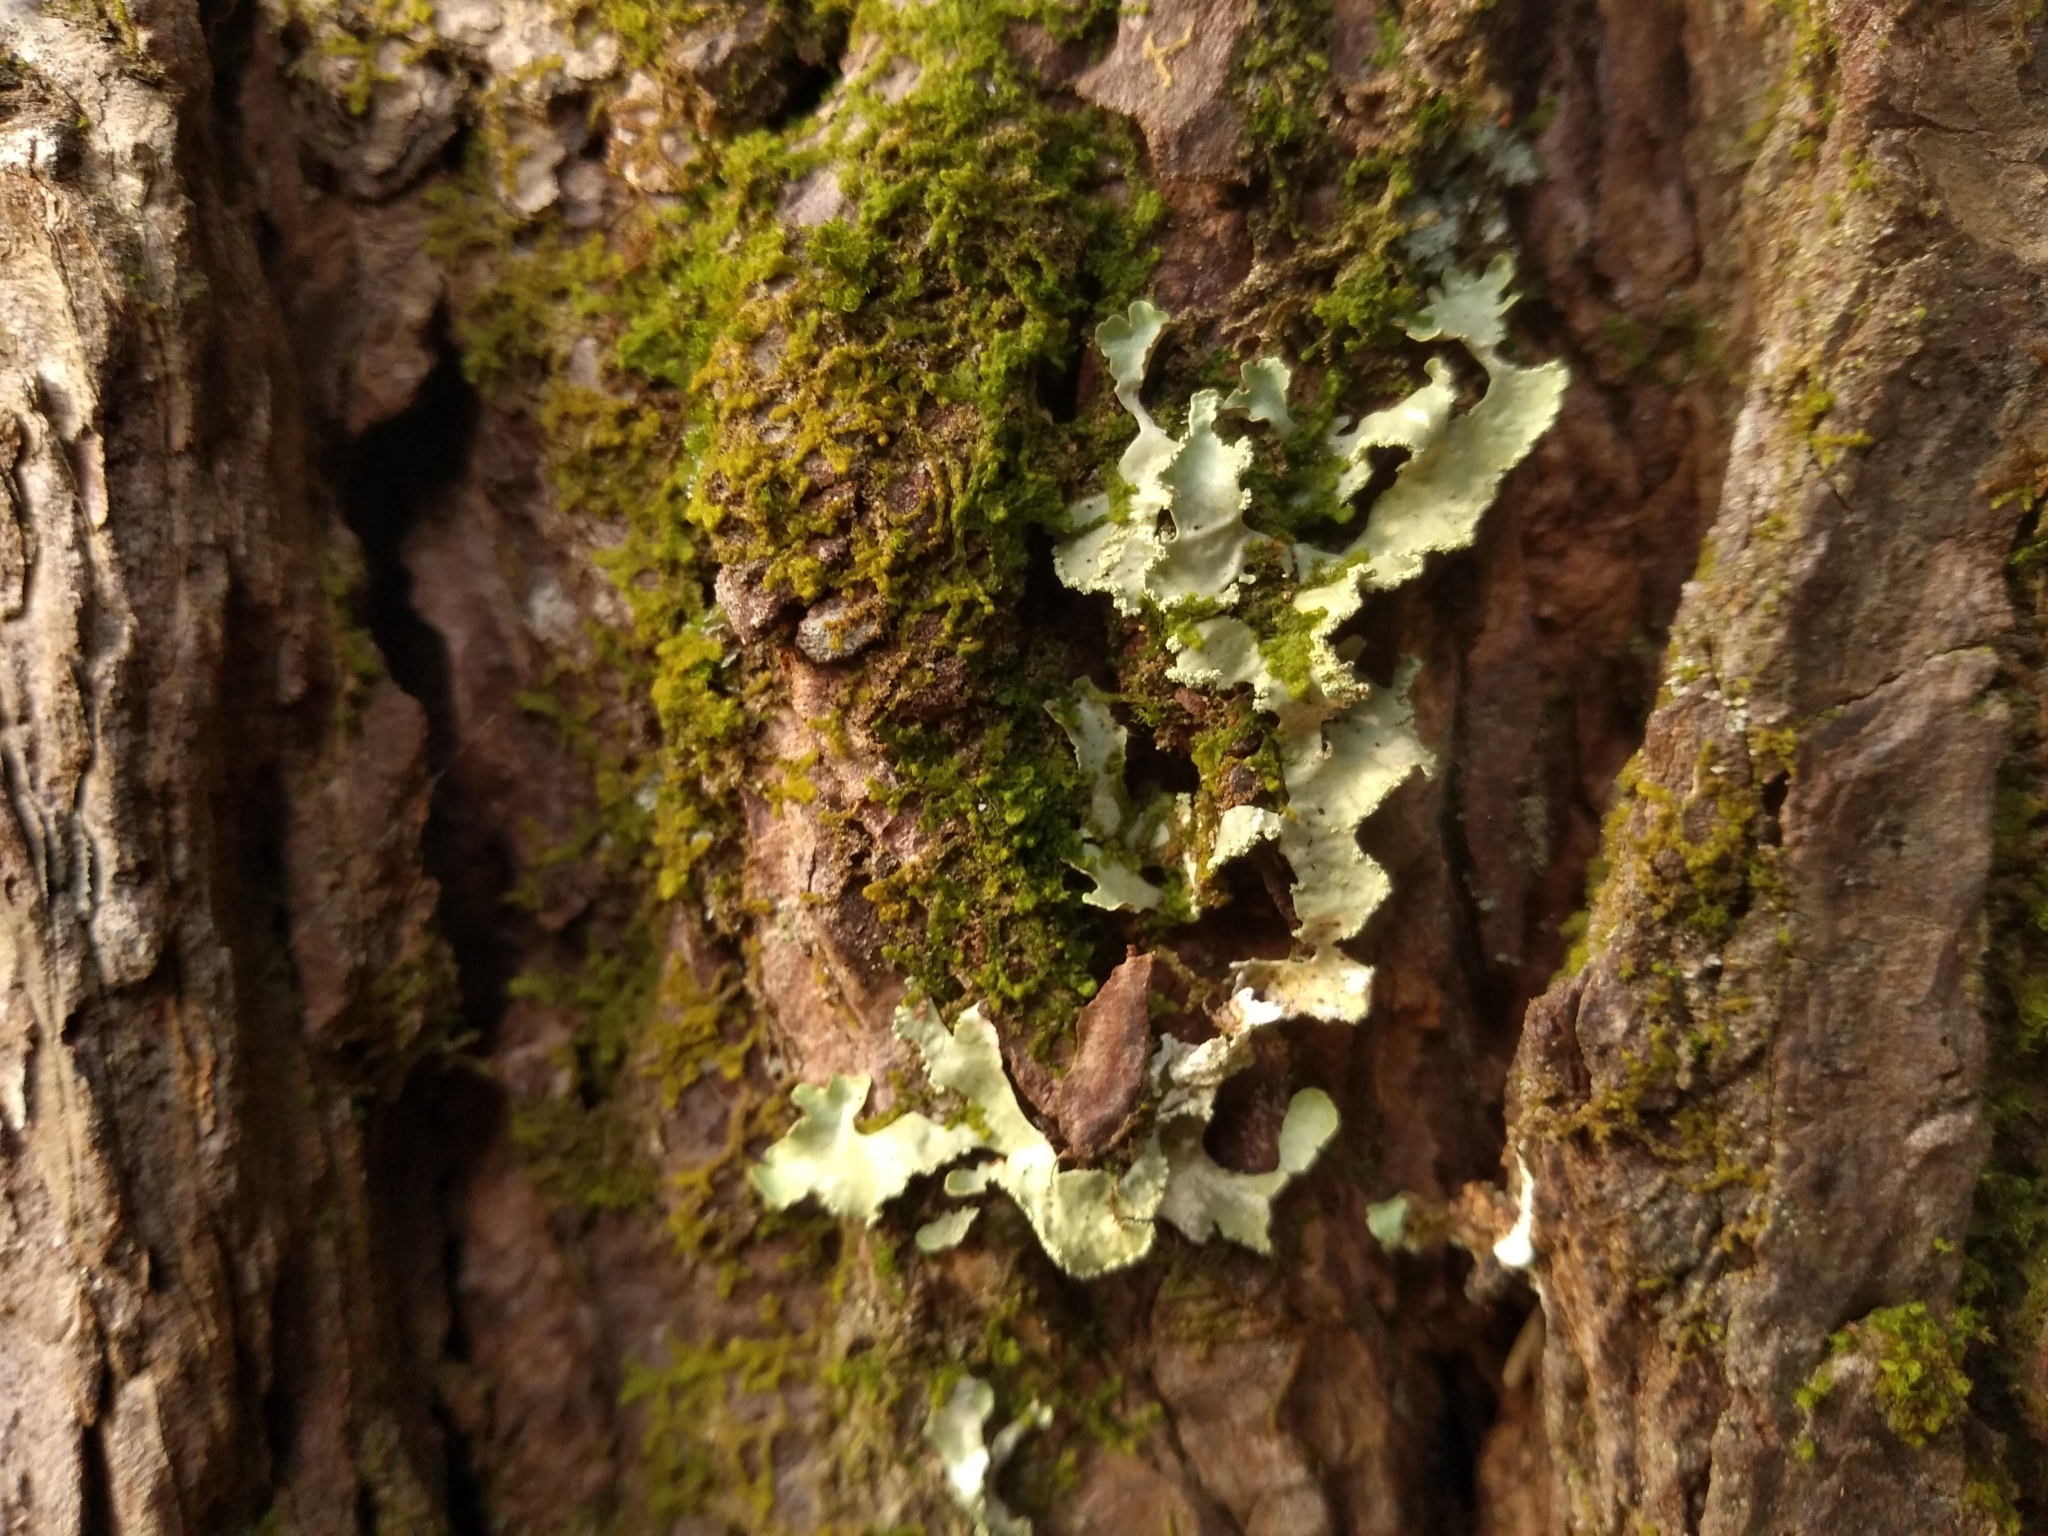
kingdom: Fungi
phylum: Ascomycota
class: Lecanoromycetes
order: Lecanorales
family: Parmeliaceae
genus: Usnocetraria
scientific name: Usnocetraria oakesiana
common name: Yellow ribbon lichen
